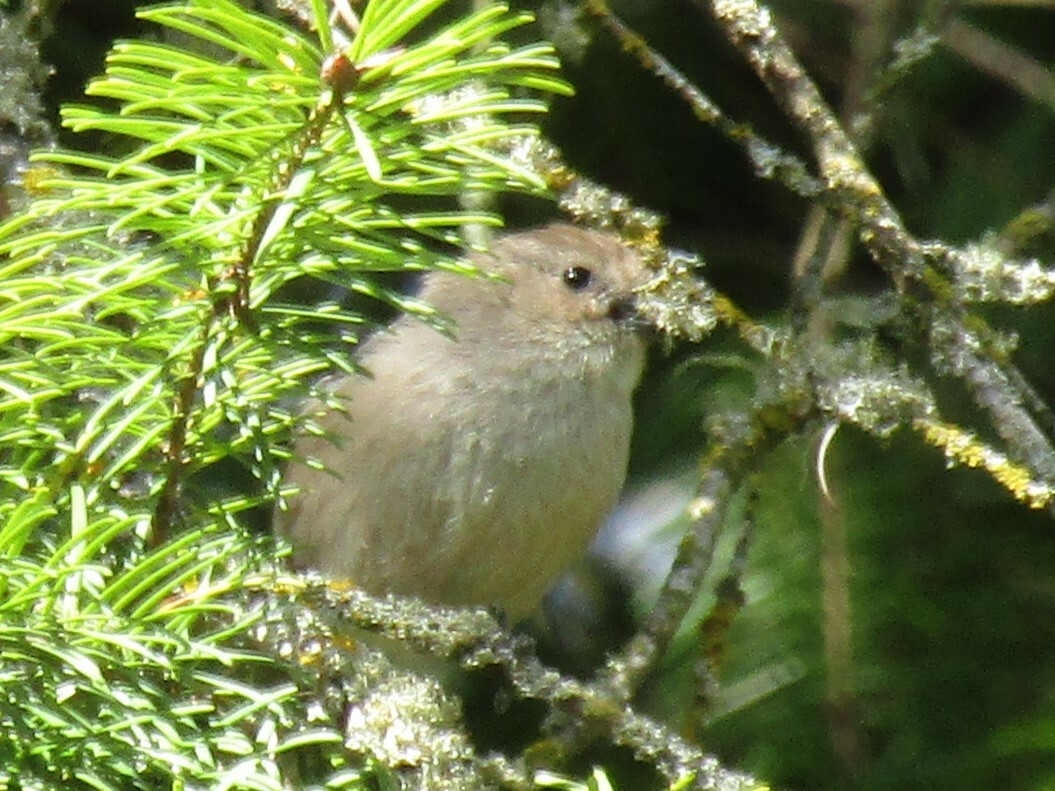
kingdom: Animalia
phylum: Chordata
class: Aves
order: Passeriformes
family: Aegithalidae
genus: Psaltriparus
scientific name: Psaltriparus minimus
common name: American bushtit
